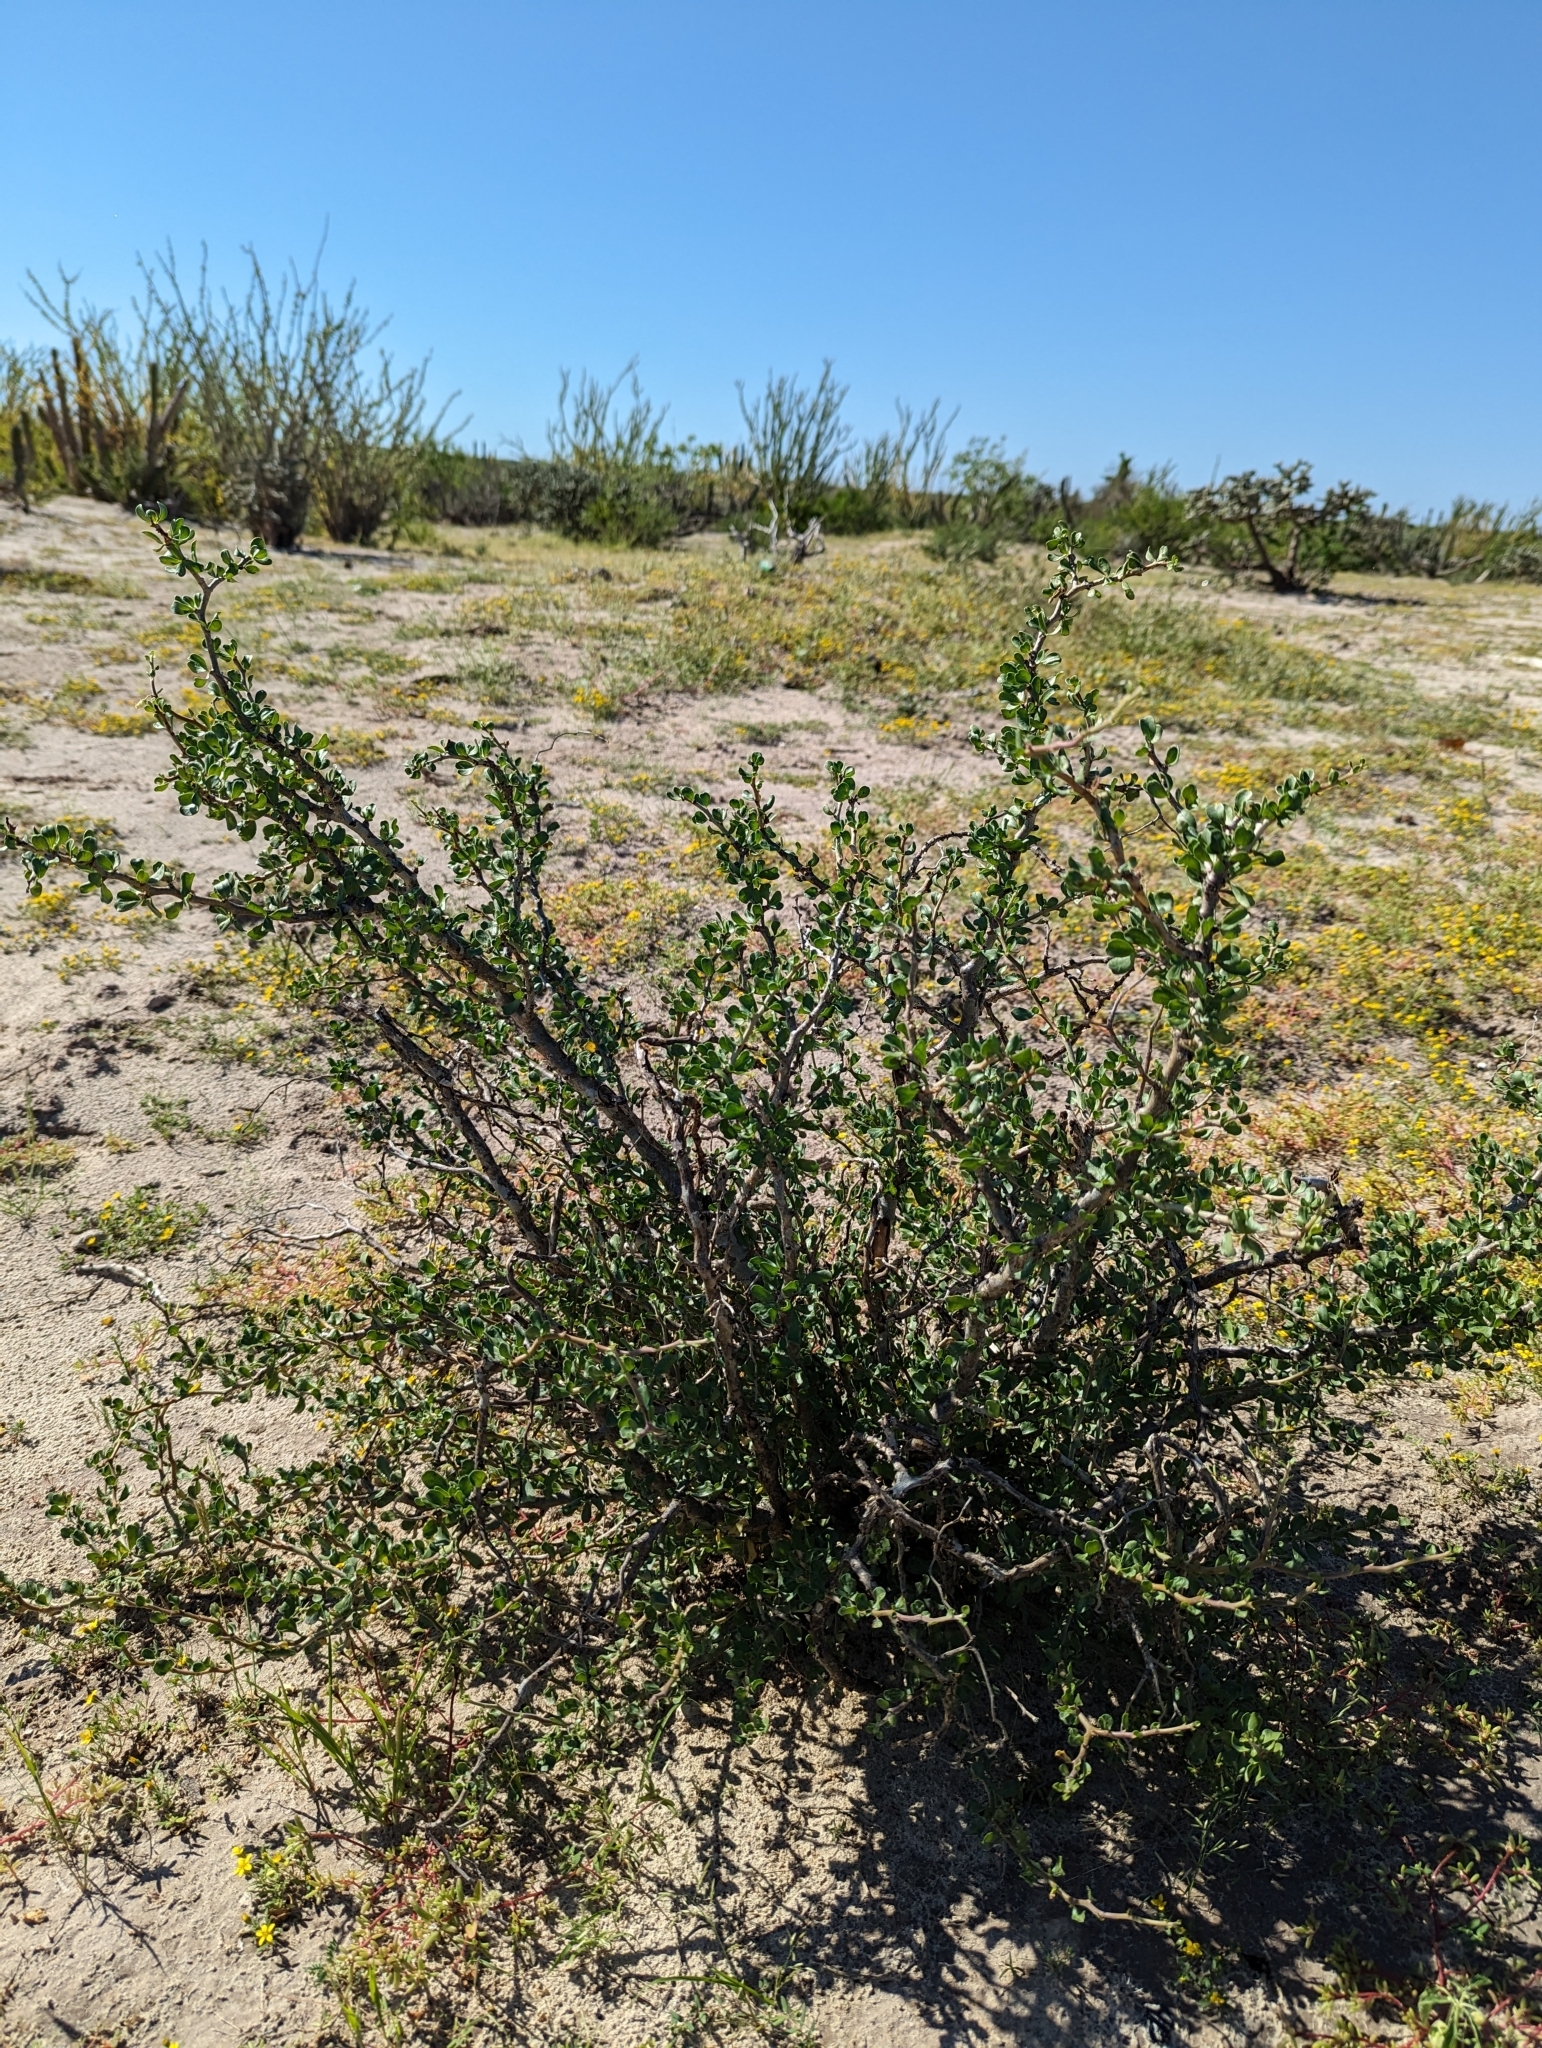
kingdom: Plantae
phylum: Tracheophyta
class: Magnoliopsida
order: Malpighiales
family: Euphorbiaceae
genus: Jatropha
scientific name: Jatropha cuneata
